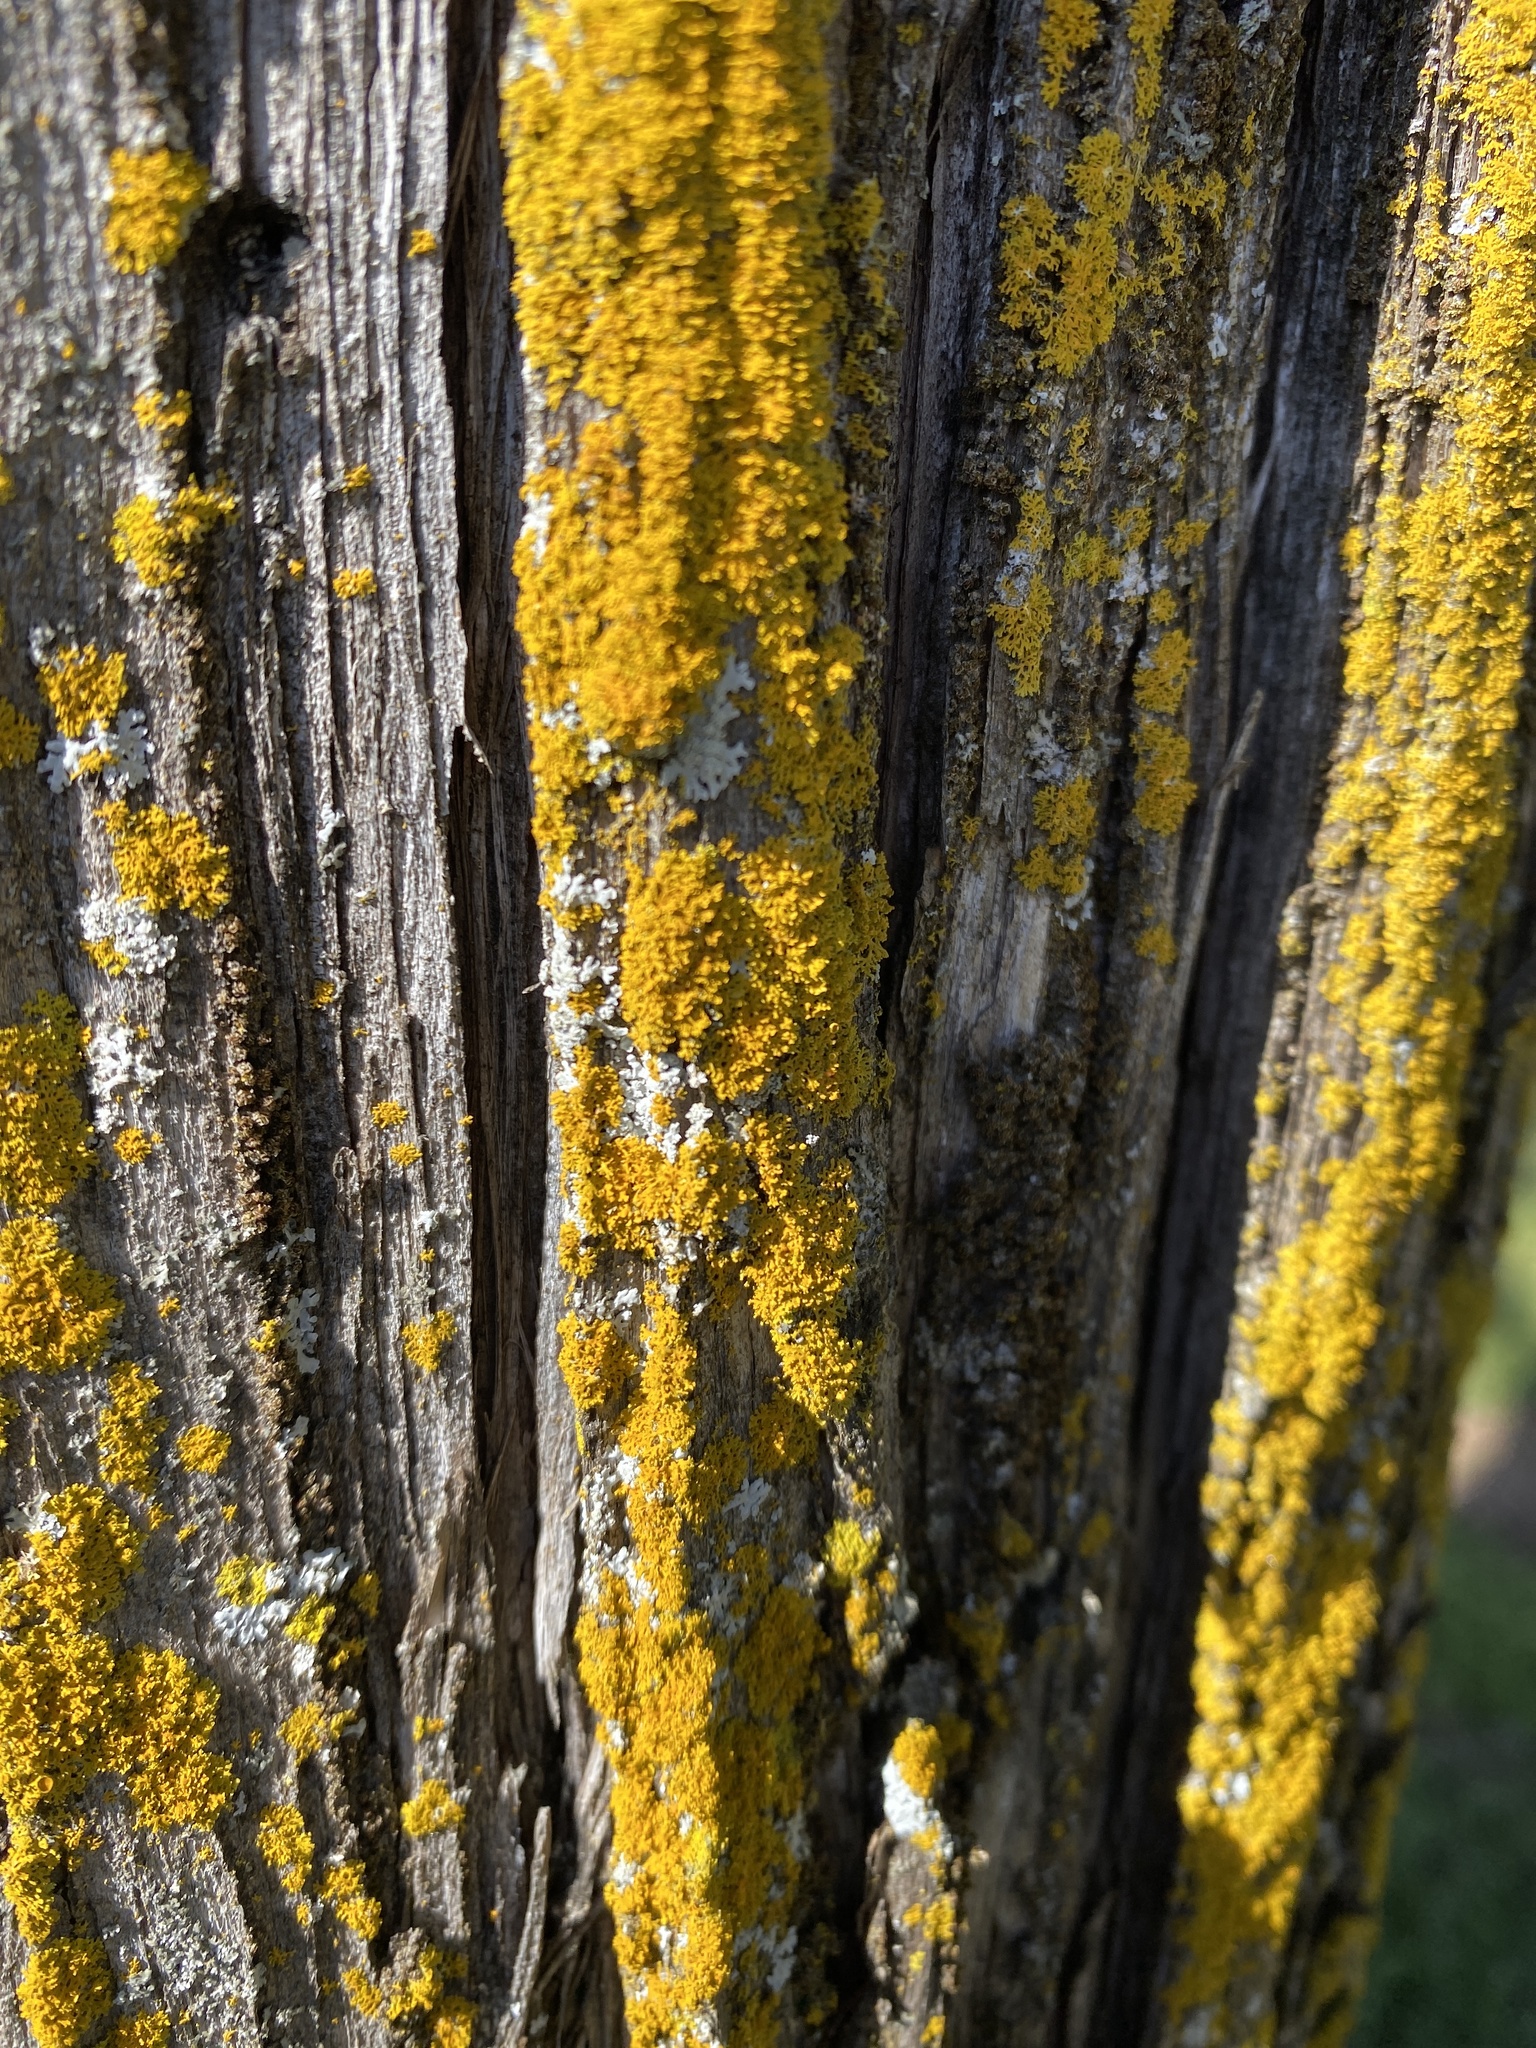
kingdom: Fungi
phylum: Ascomycota
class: Lecanoromycetes
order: Teloschistales
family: Teloschistaceae
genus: Gallowayella
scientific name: Gallowayella weberi
